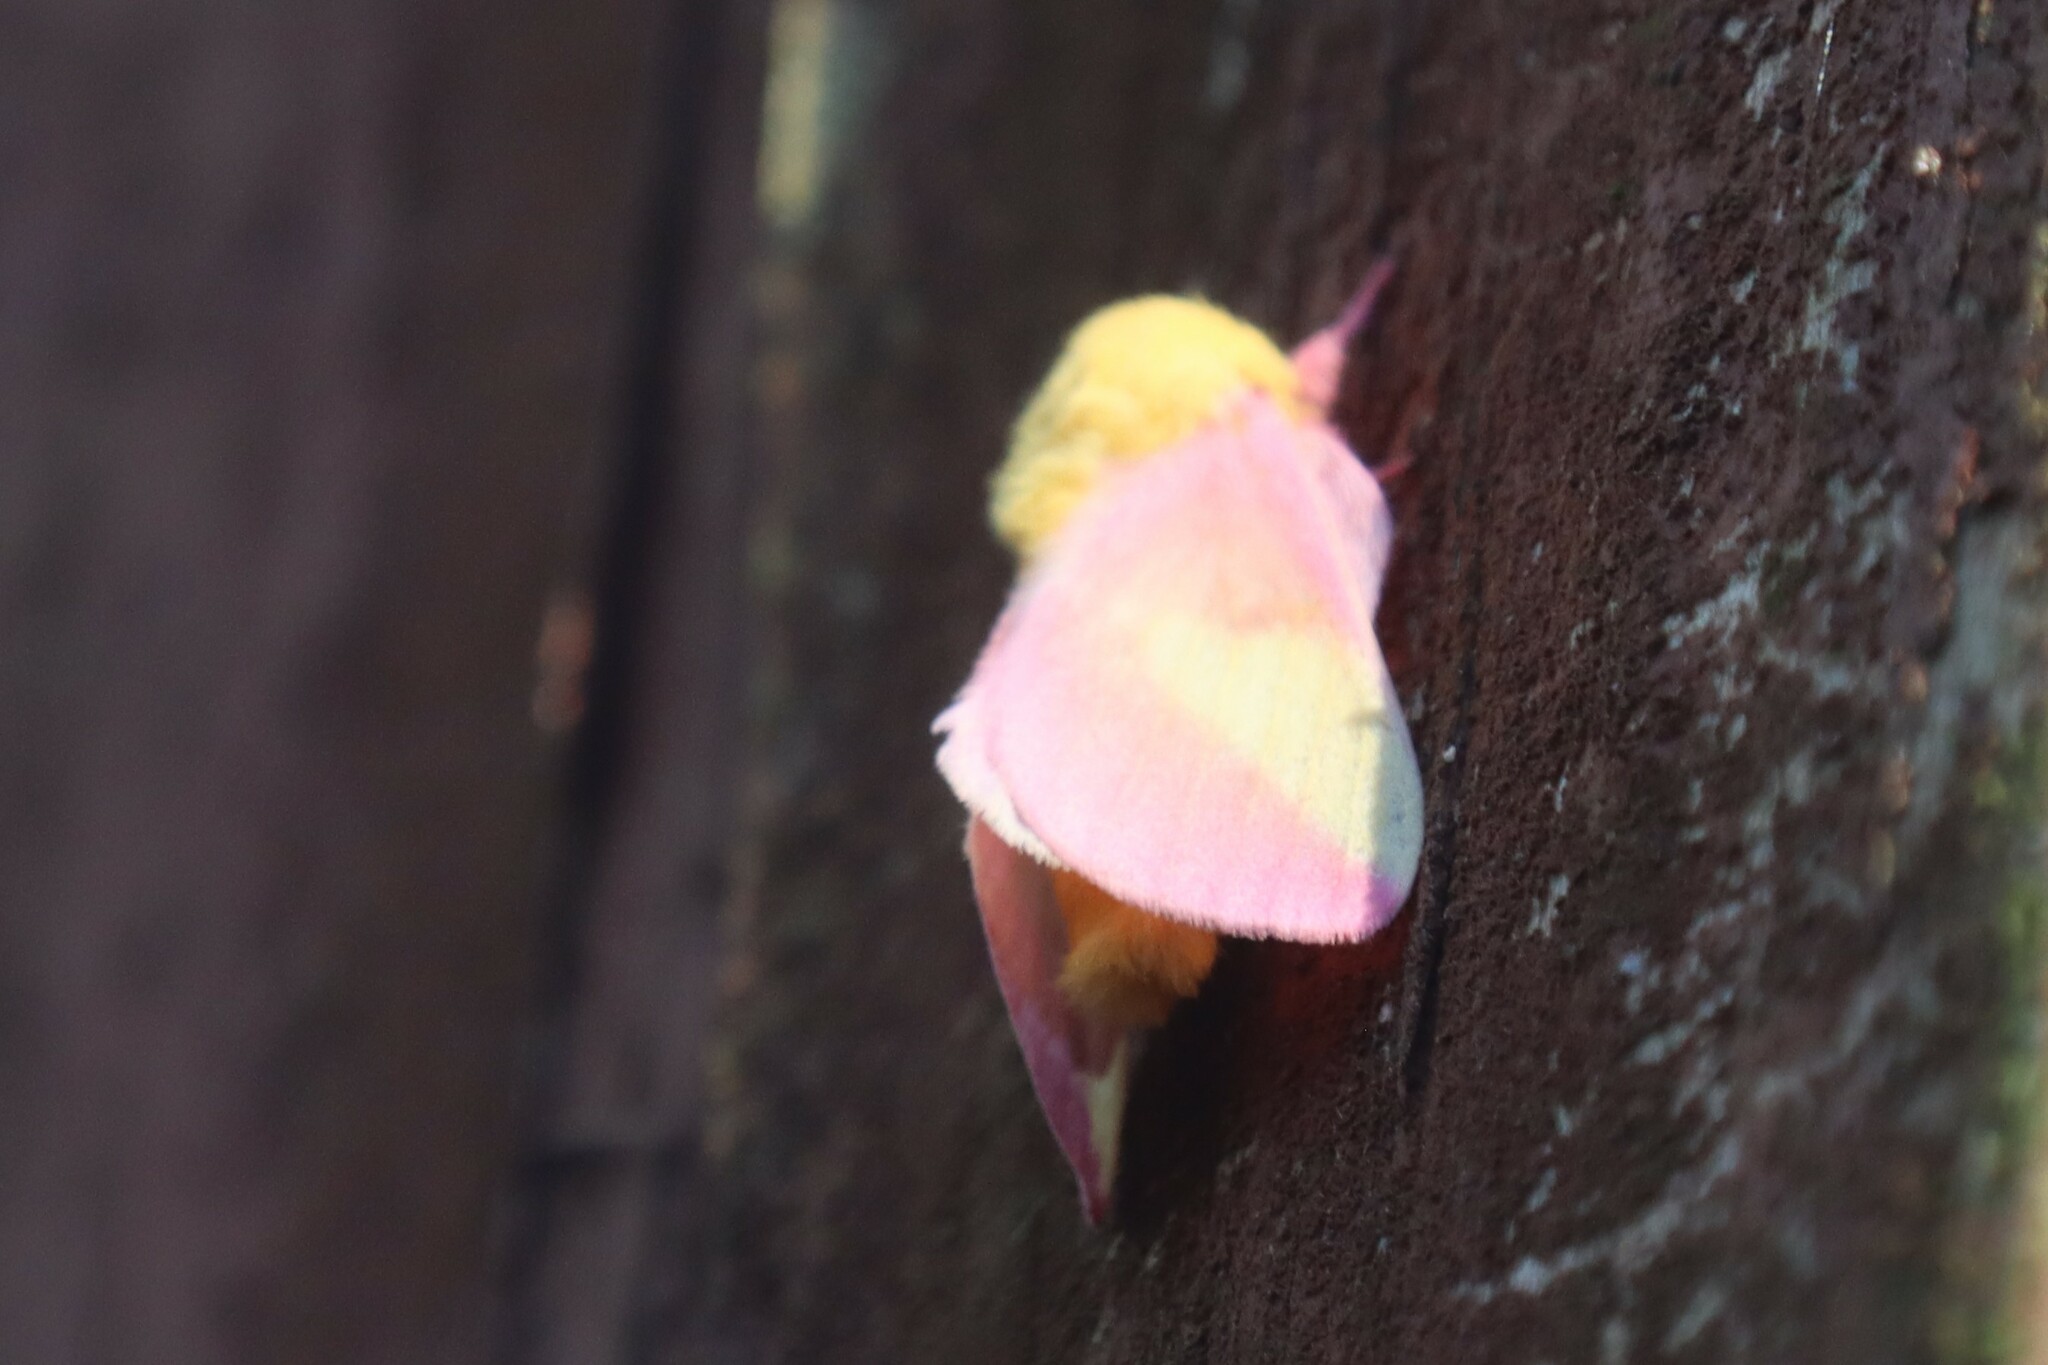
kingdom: Animalia
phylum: Arthropoda
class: Insecta
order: Lepidoptera
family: Saturniidae
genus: Dryocampa
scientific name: Dryocampa rubicunda
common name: Rosy maple moth
